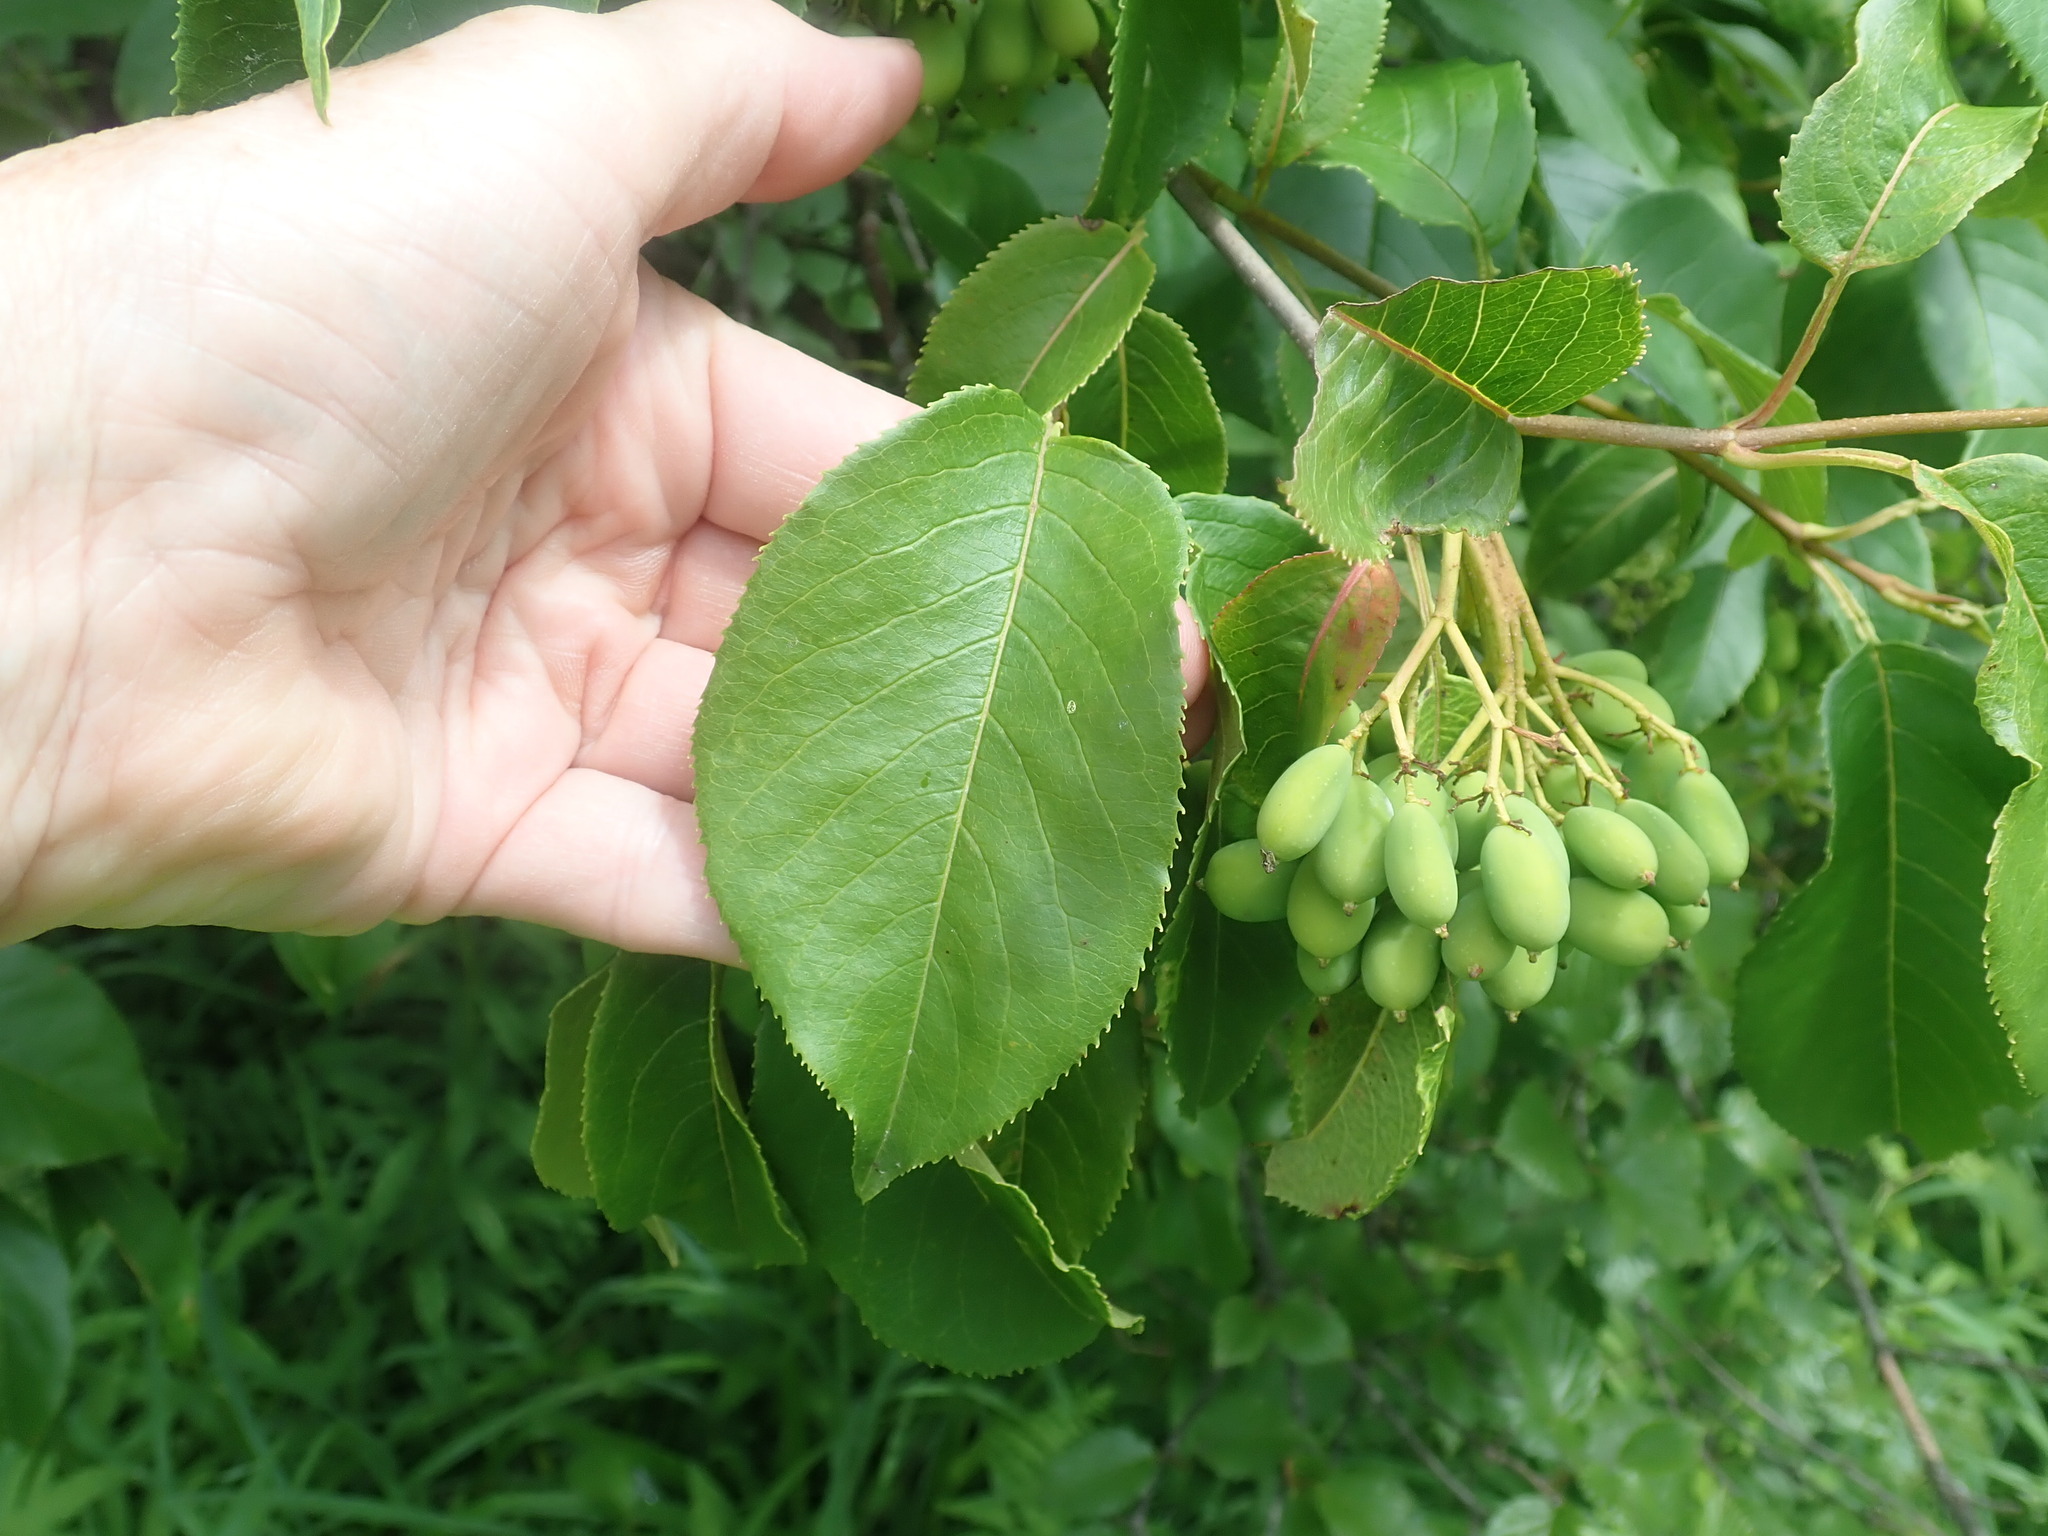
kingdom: Plantae
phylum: Tracheophyta
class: Magnoliopsida
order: Dipsacales
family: Viburnaceae
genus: Viburnum
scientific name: Viburnum lentago
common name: Black haw
